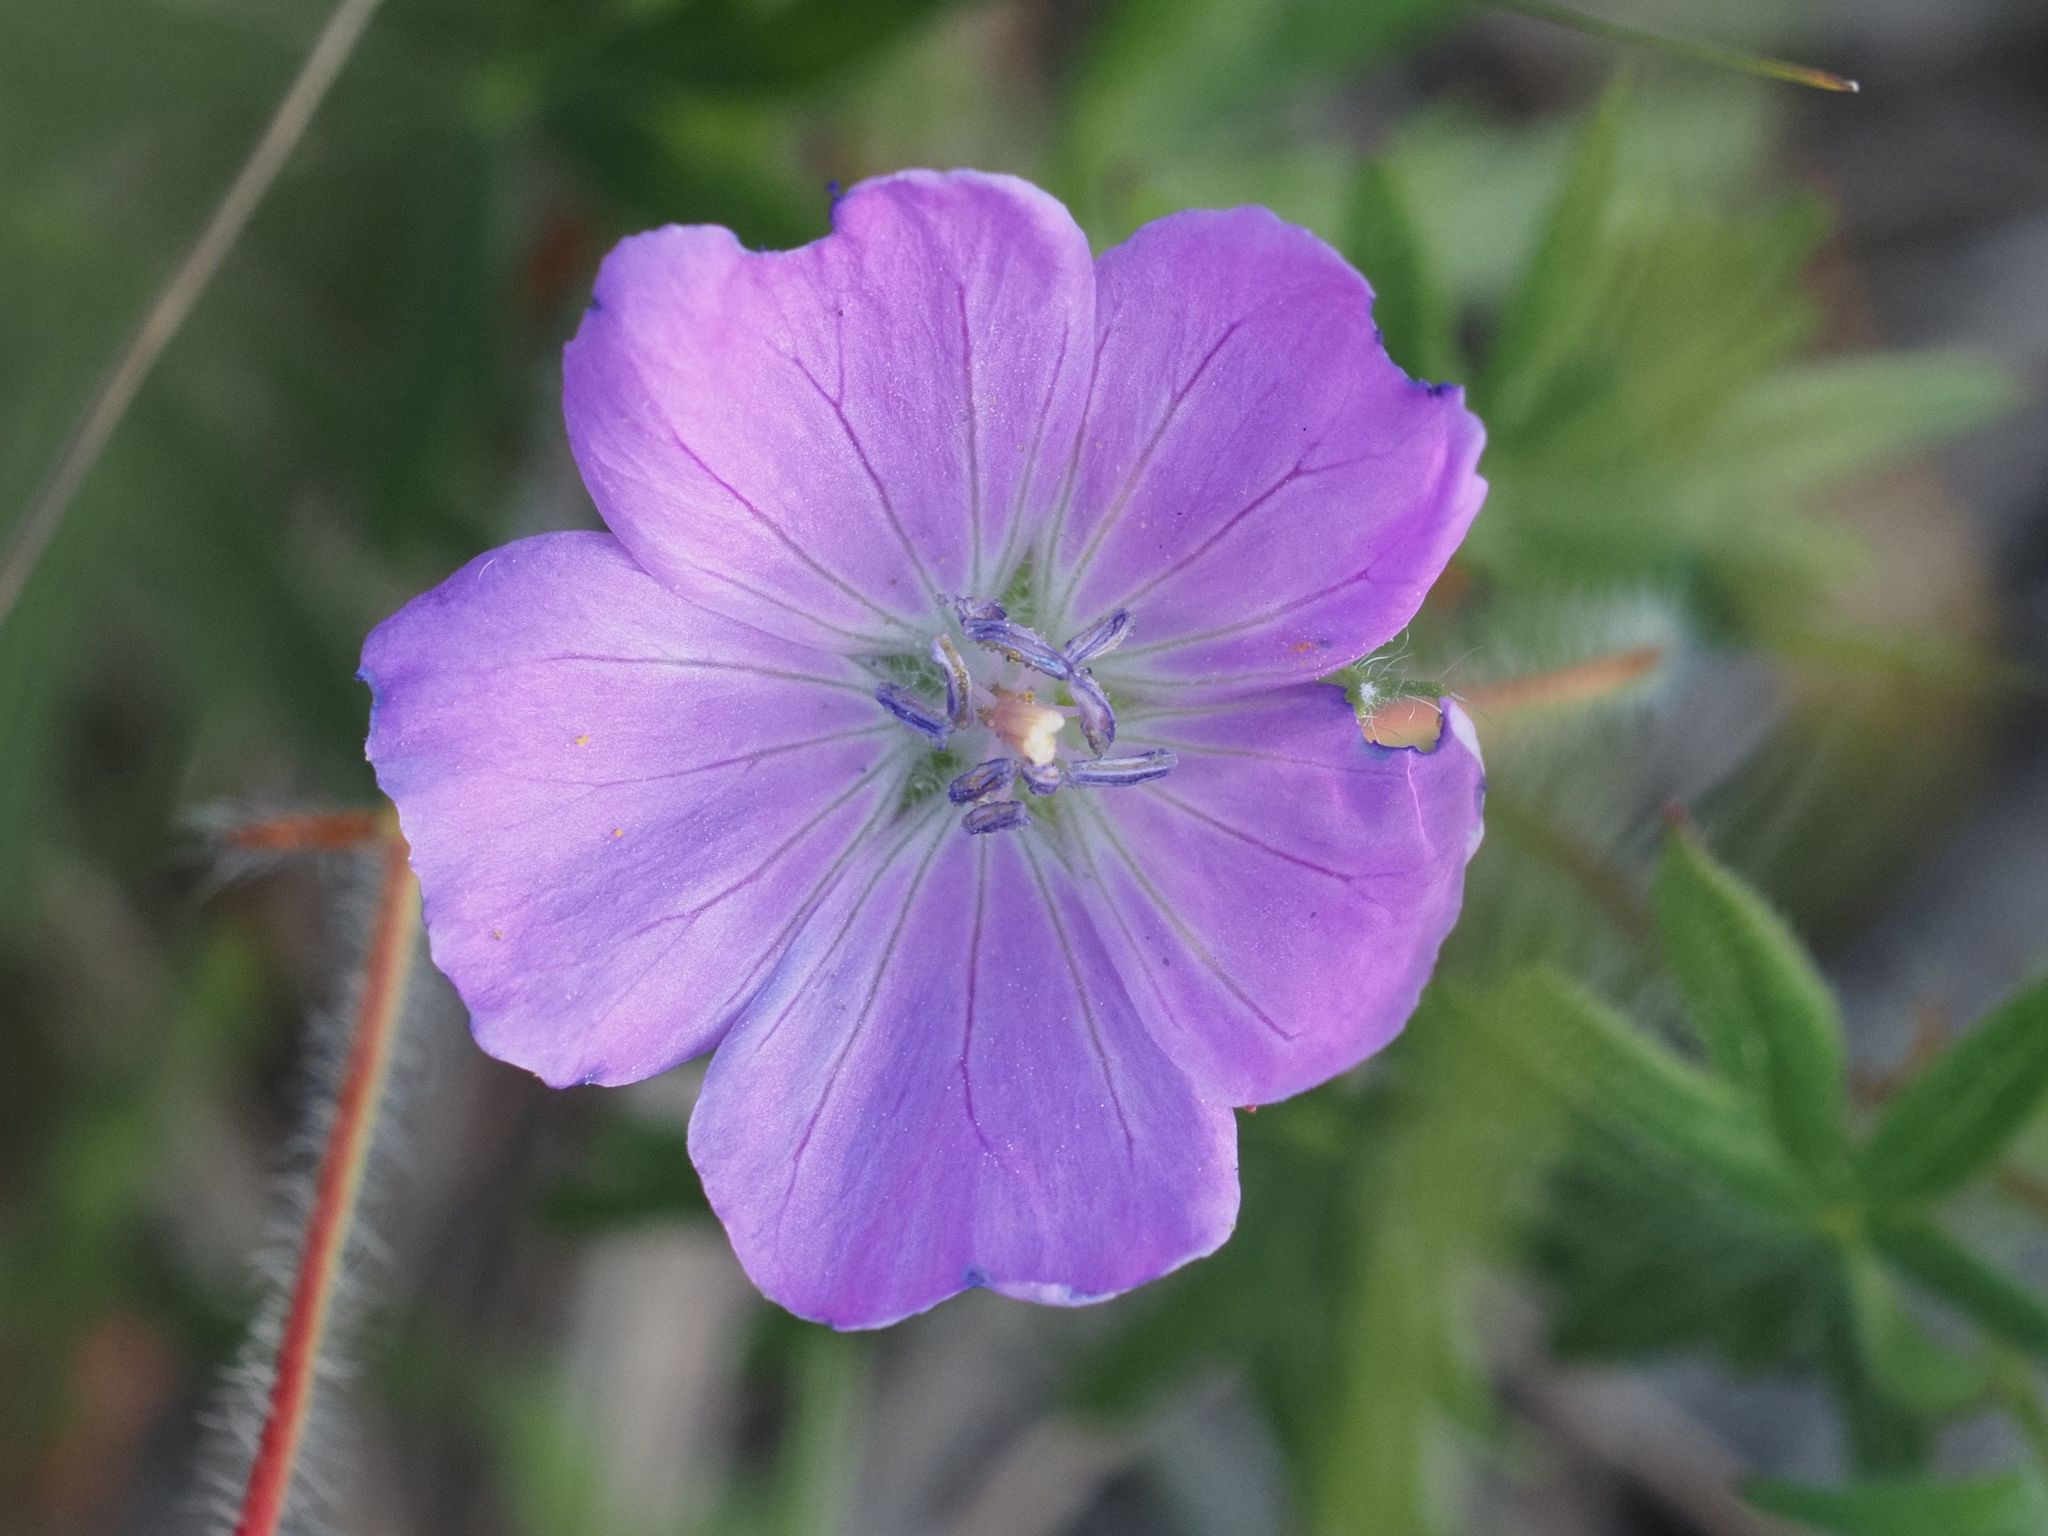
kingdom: Plantae
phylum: Tracheophyta
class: Magnoliopsida
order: Geraniales
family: Geraniaceae
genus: Geranium
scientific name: Geranium sanguineum
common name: Bloody crane's-bill
